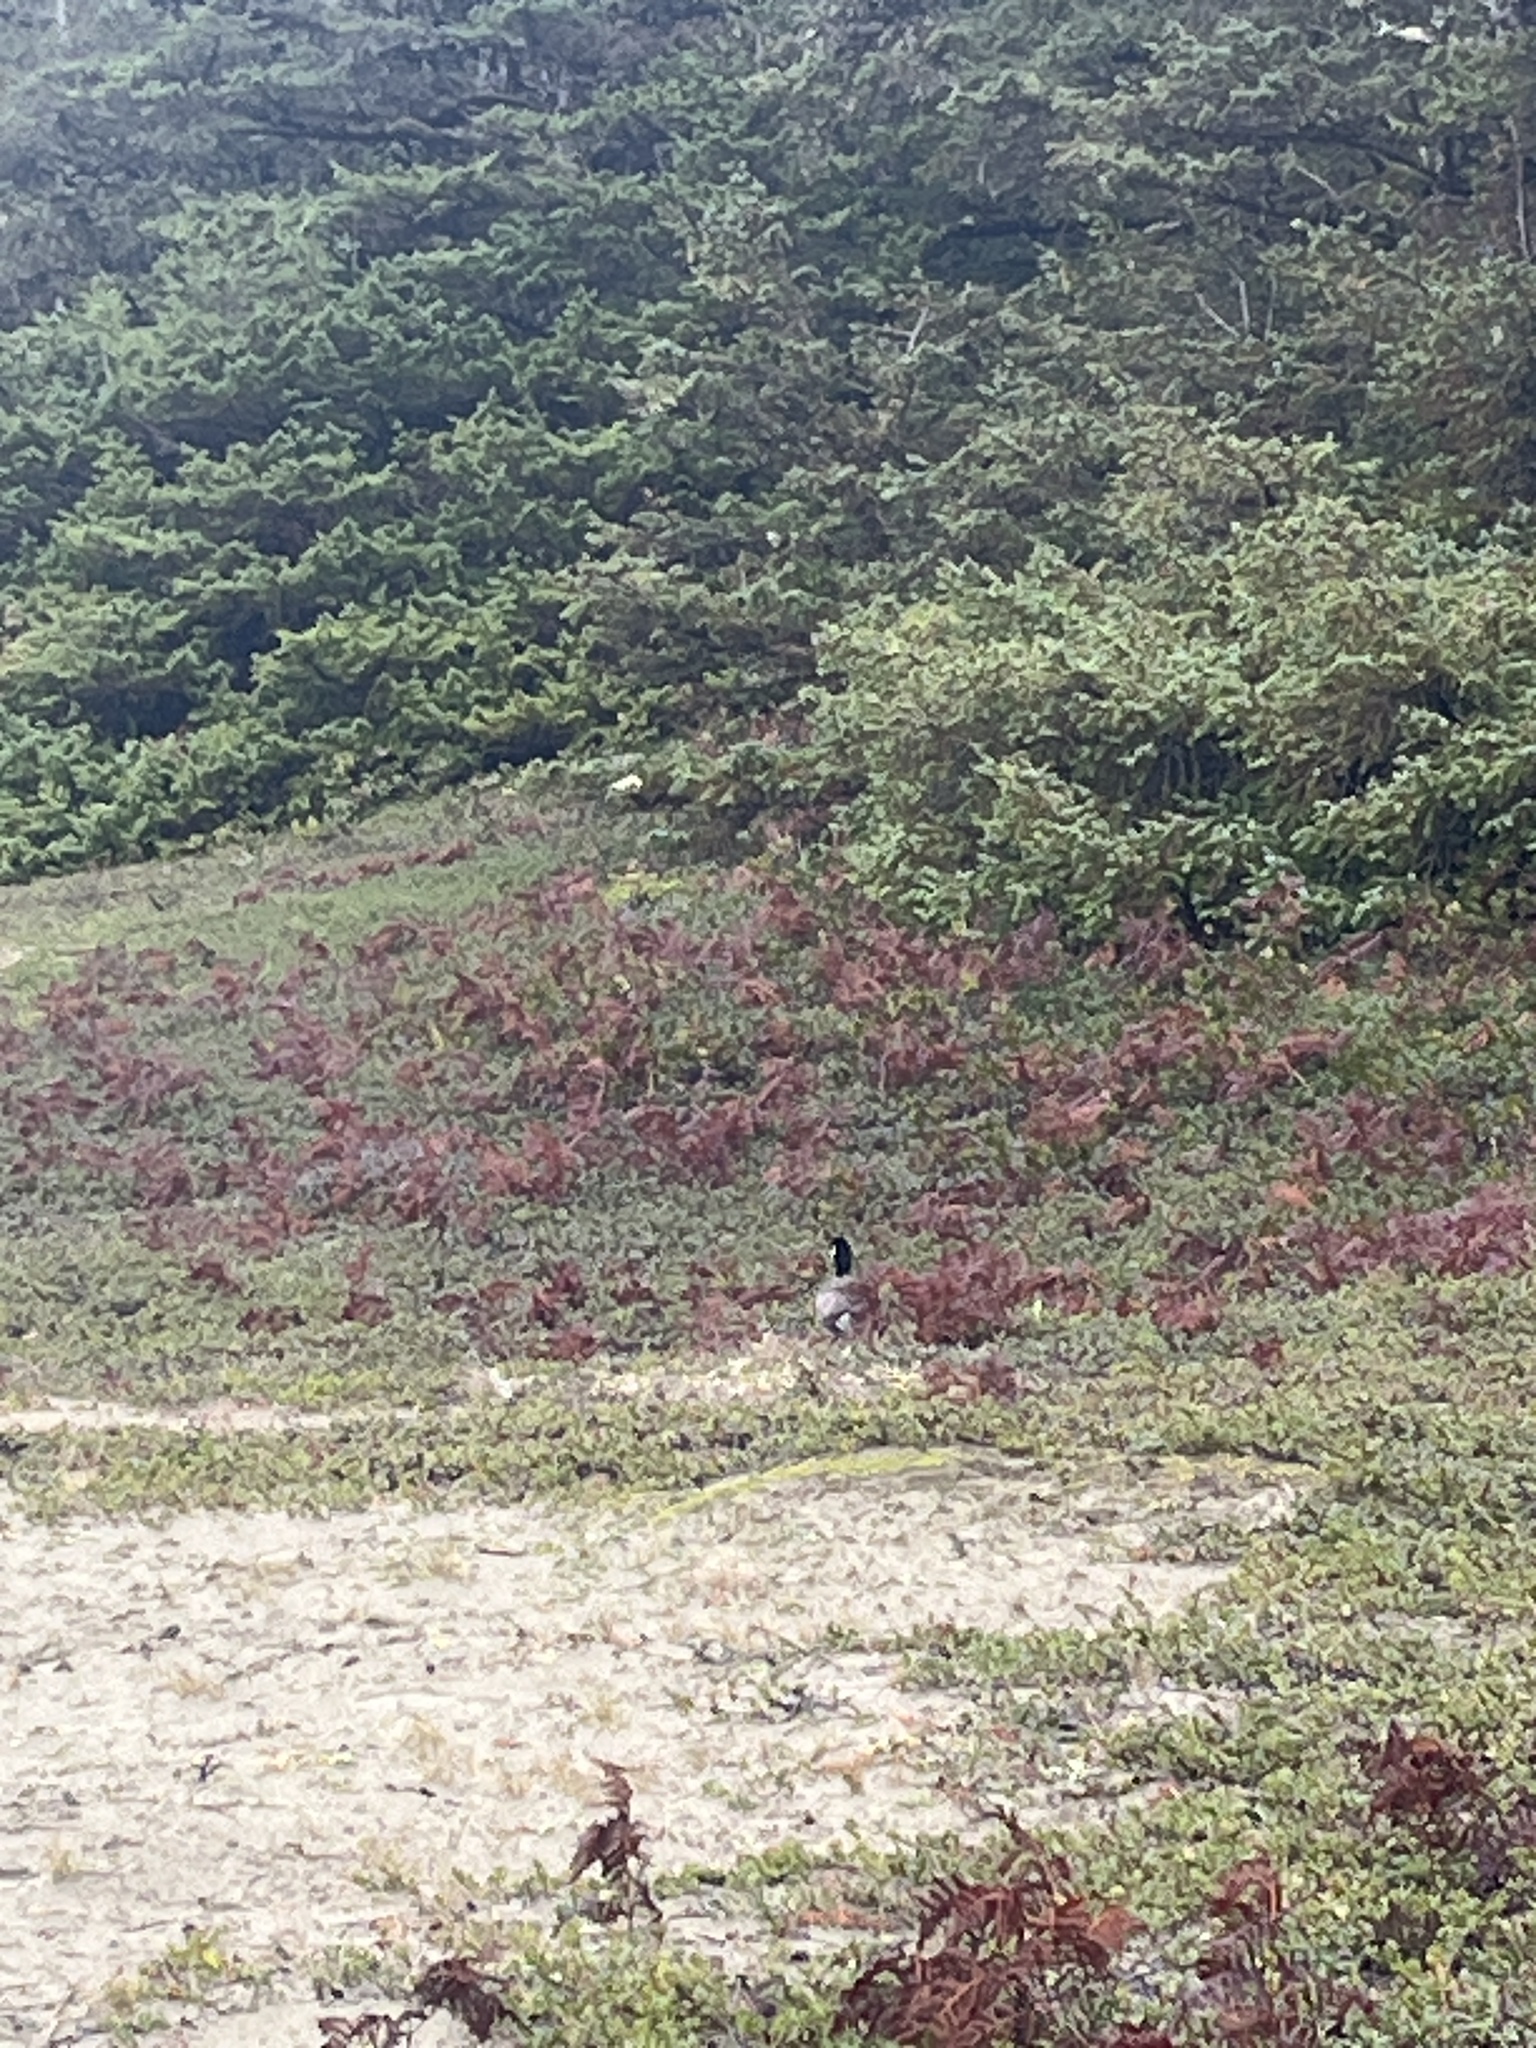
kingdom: Animalia
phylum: Chordata
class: Aves
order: Anseriformes
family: Anatidae
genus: Branta
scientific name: Branta hutchinsii
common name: Cackling goose
